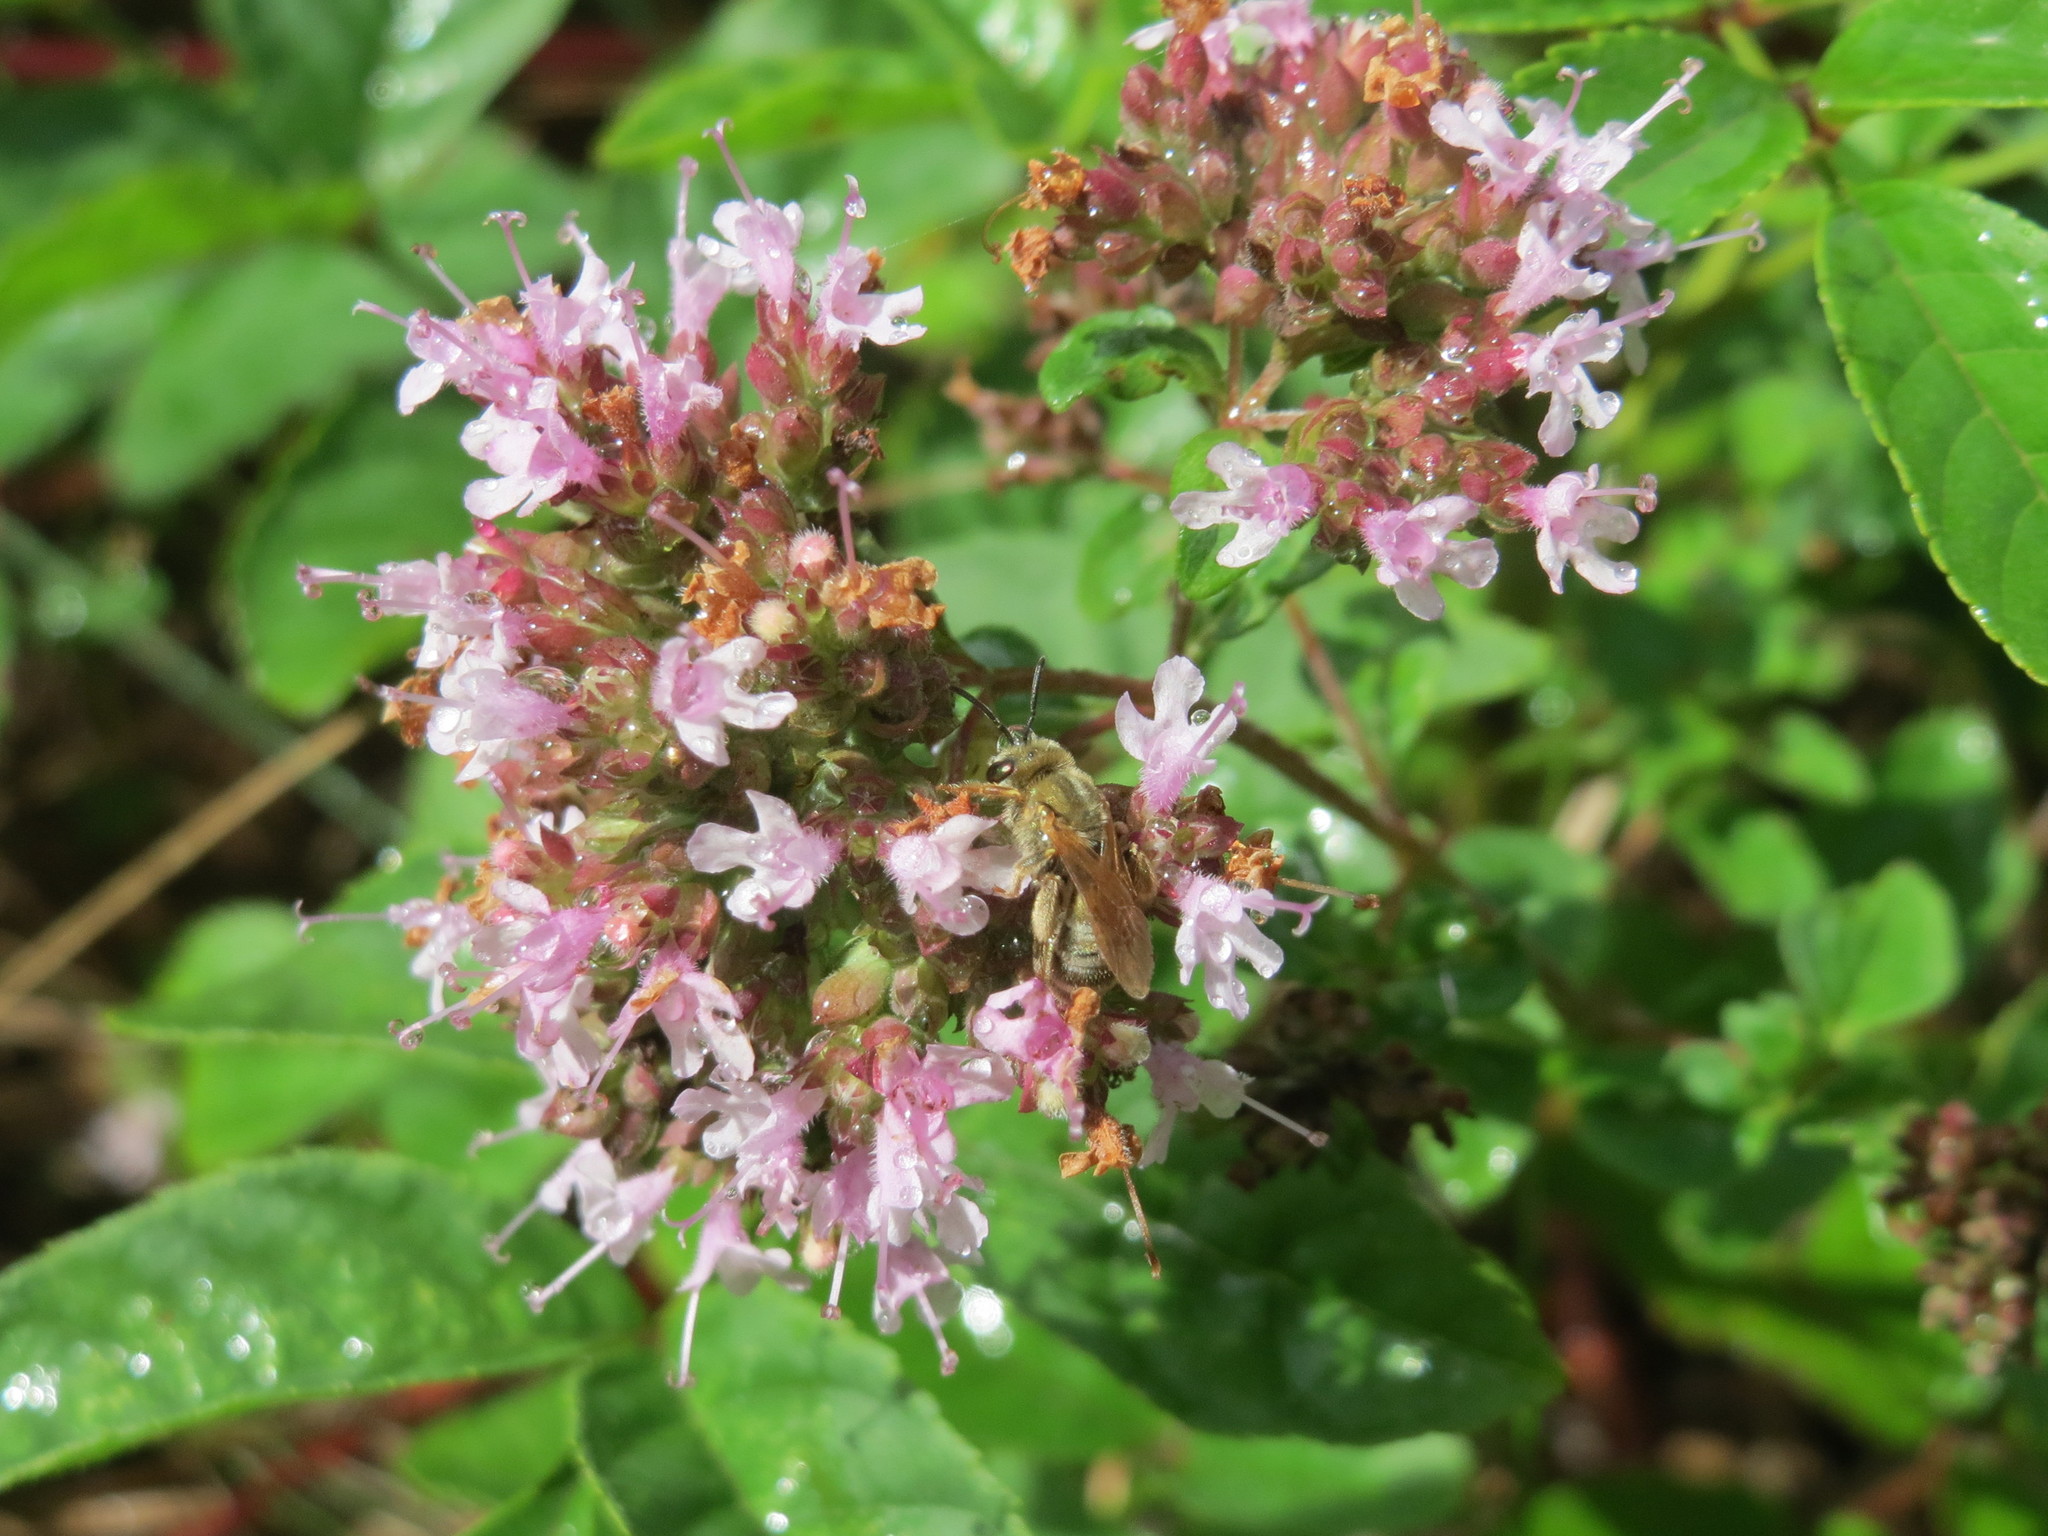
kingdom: Plantae
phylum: Tracheophyta
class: Magnoliopsida
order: Lamiales
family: Lamiaceae
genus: Origanum
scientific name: Origanum vulgare
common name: Wild marjoram
